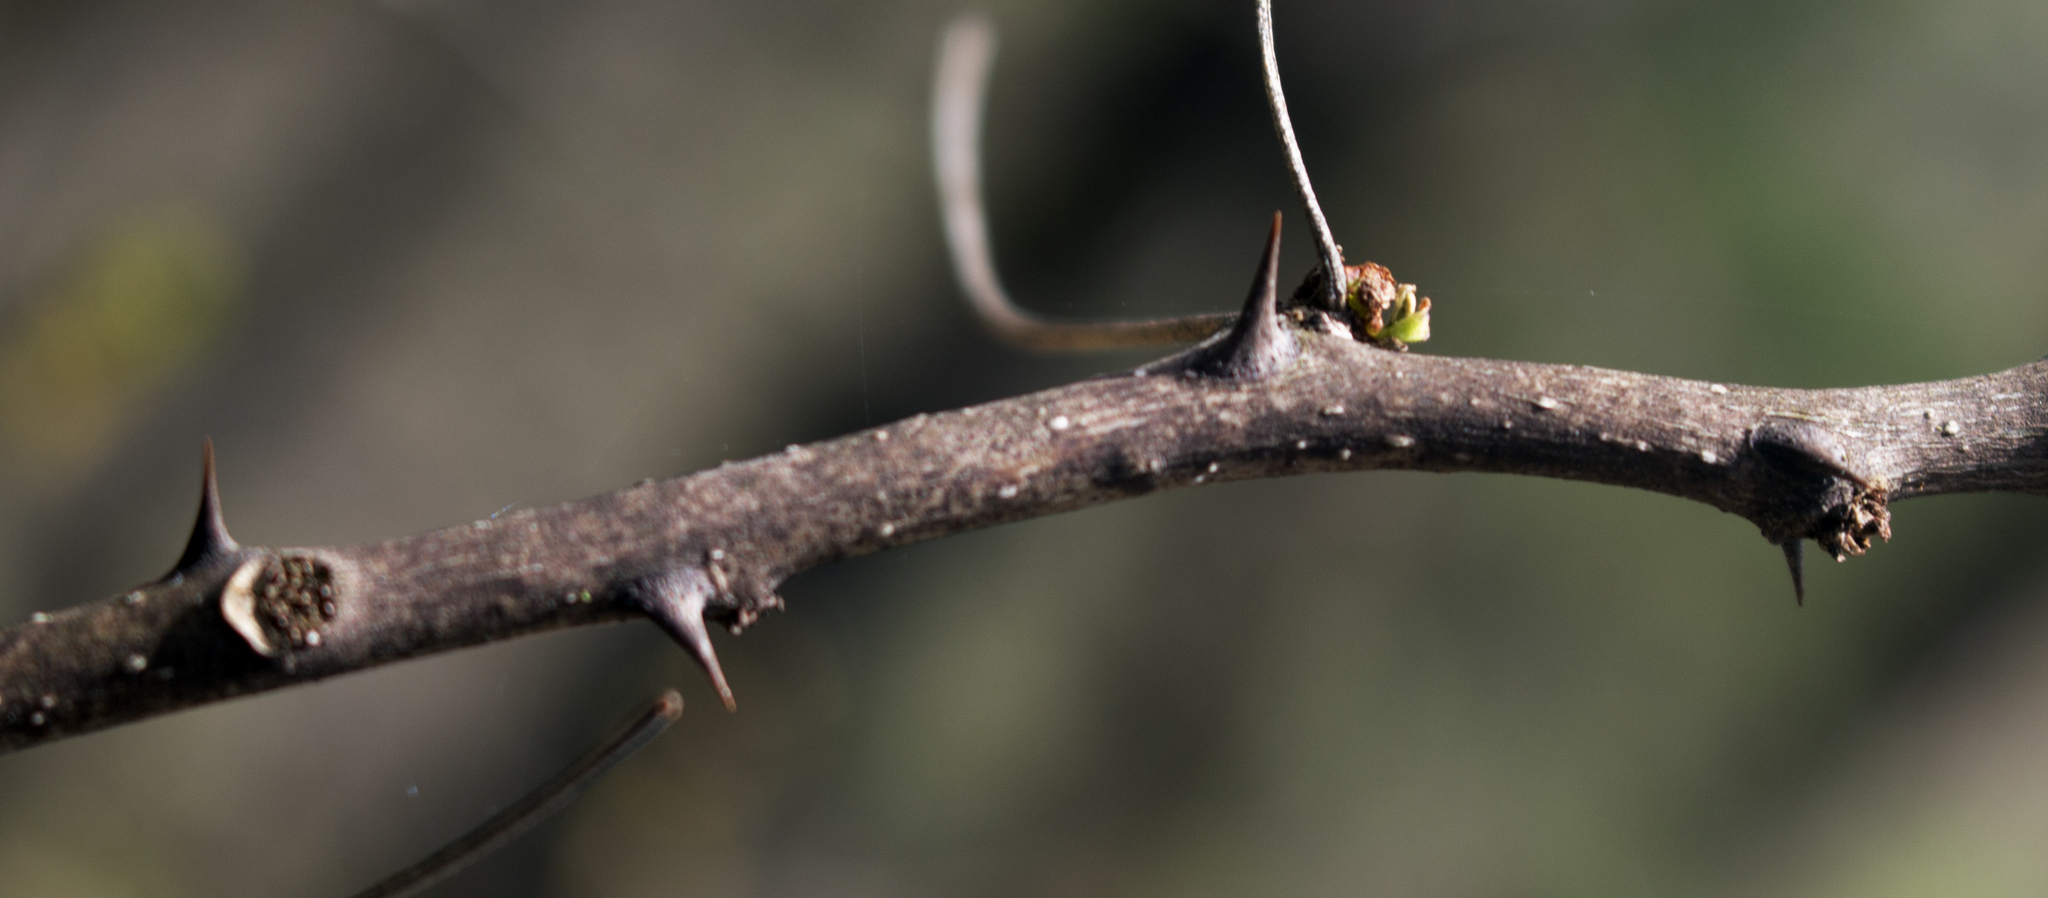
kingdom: Plantae
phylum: Tracheophyta
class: Magnoliopsida
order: Sapindales
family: Rutaceae
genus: Zanthoxylum
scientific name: Zanthoxylum americanum
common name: Northern prickly-ash
